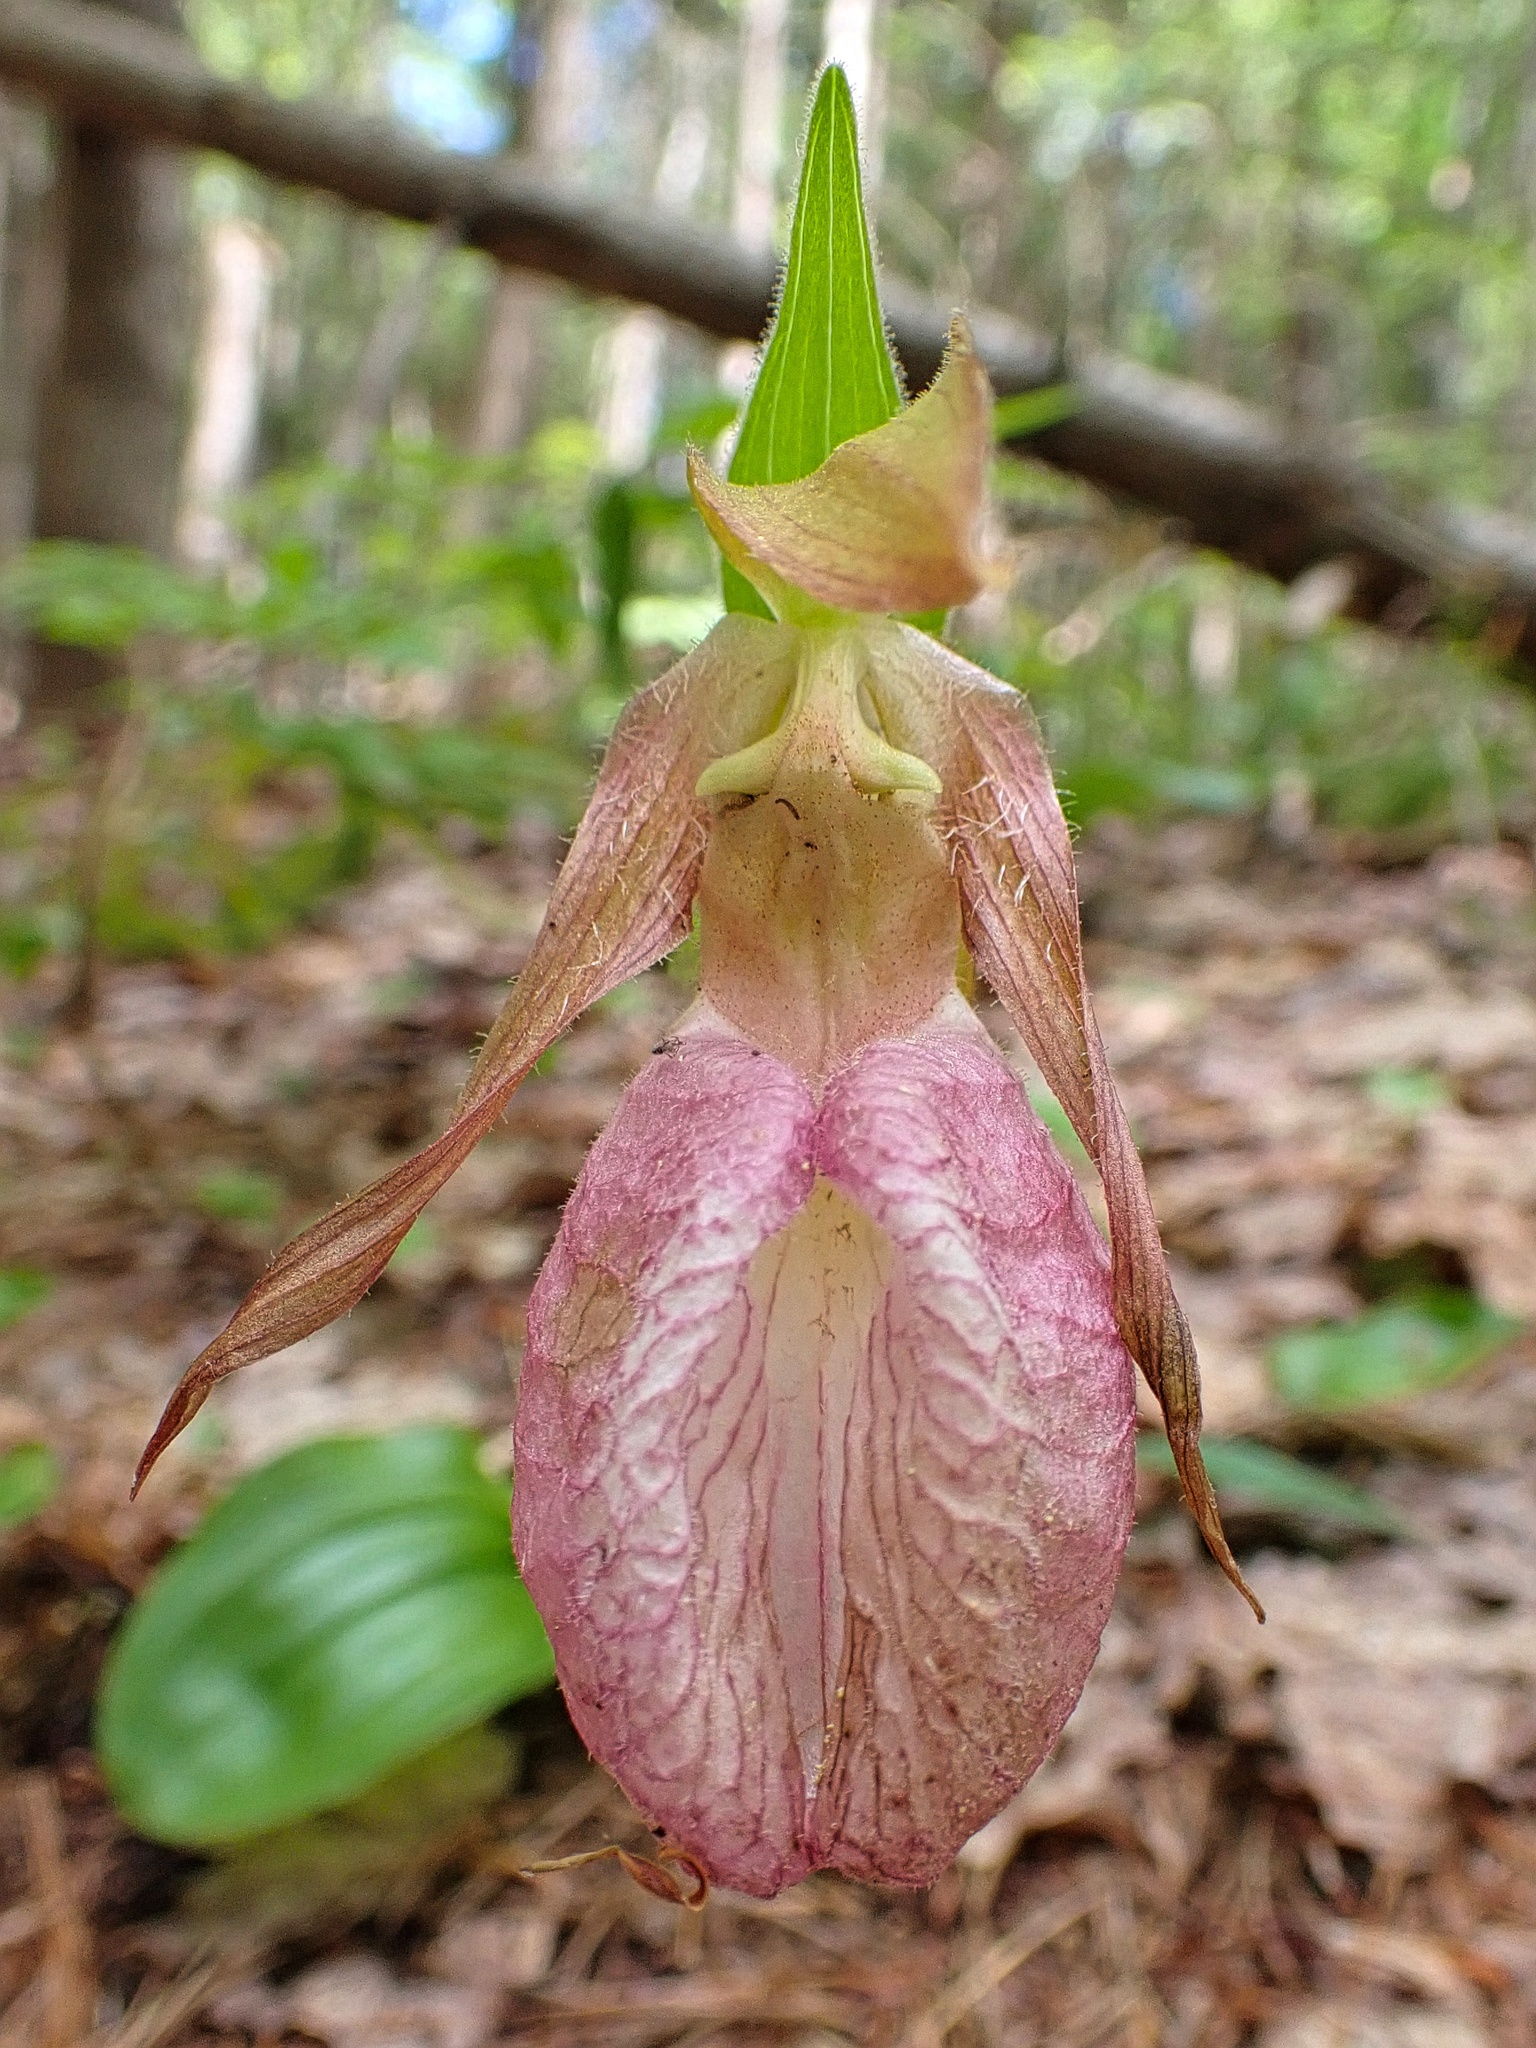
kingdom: Plantae
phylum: Tracheophyta
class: Liliopsida
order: Asparagales
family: Orchidaceae
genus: Cypripedium
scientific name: Cypripedium acaule
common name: Pink lady's-slipper
